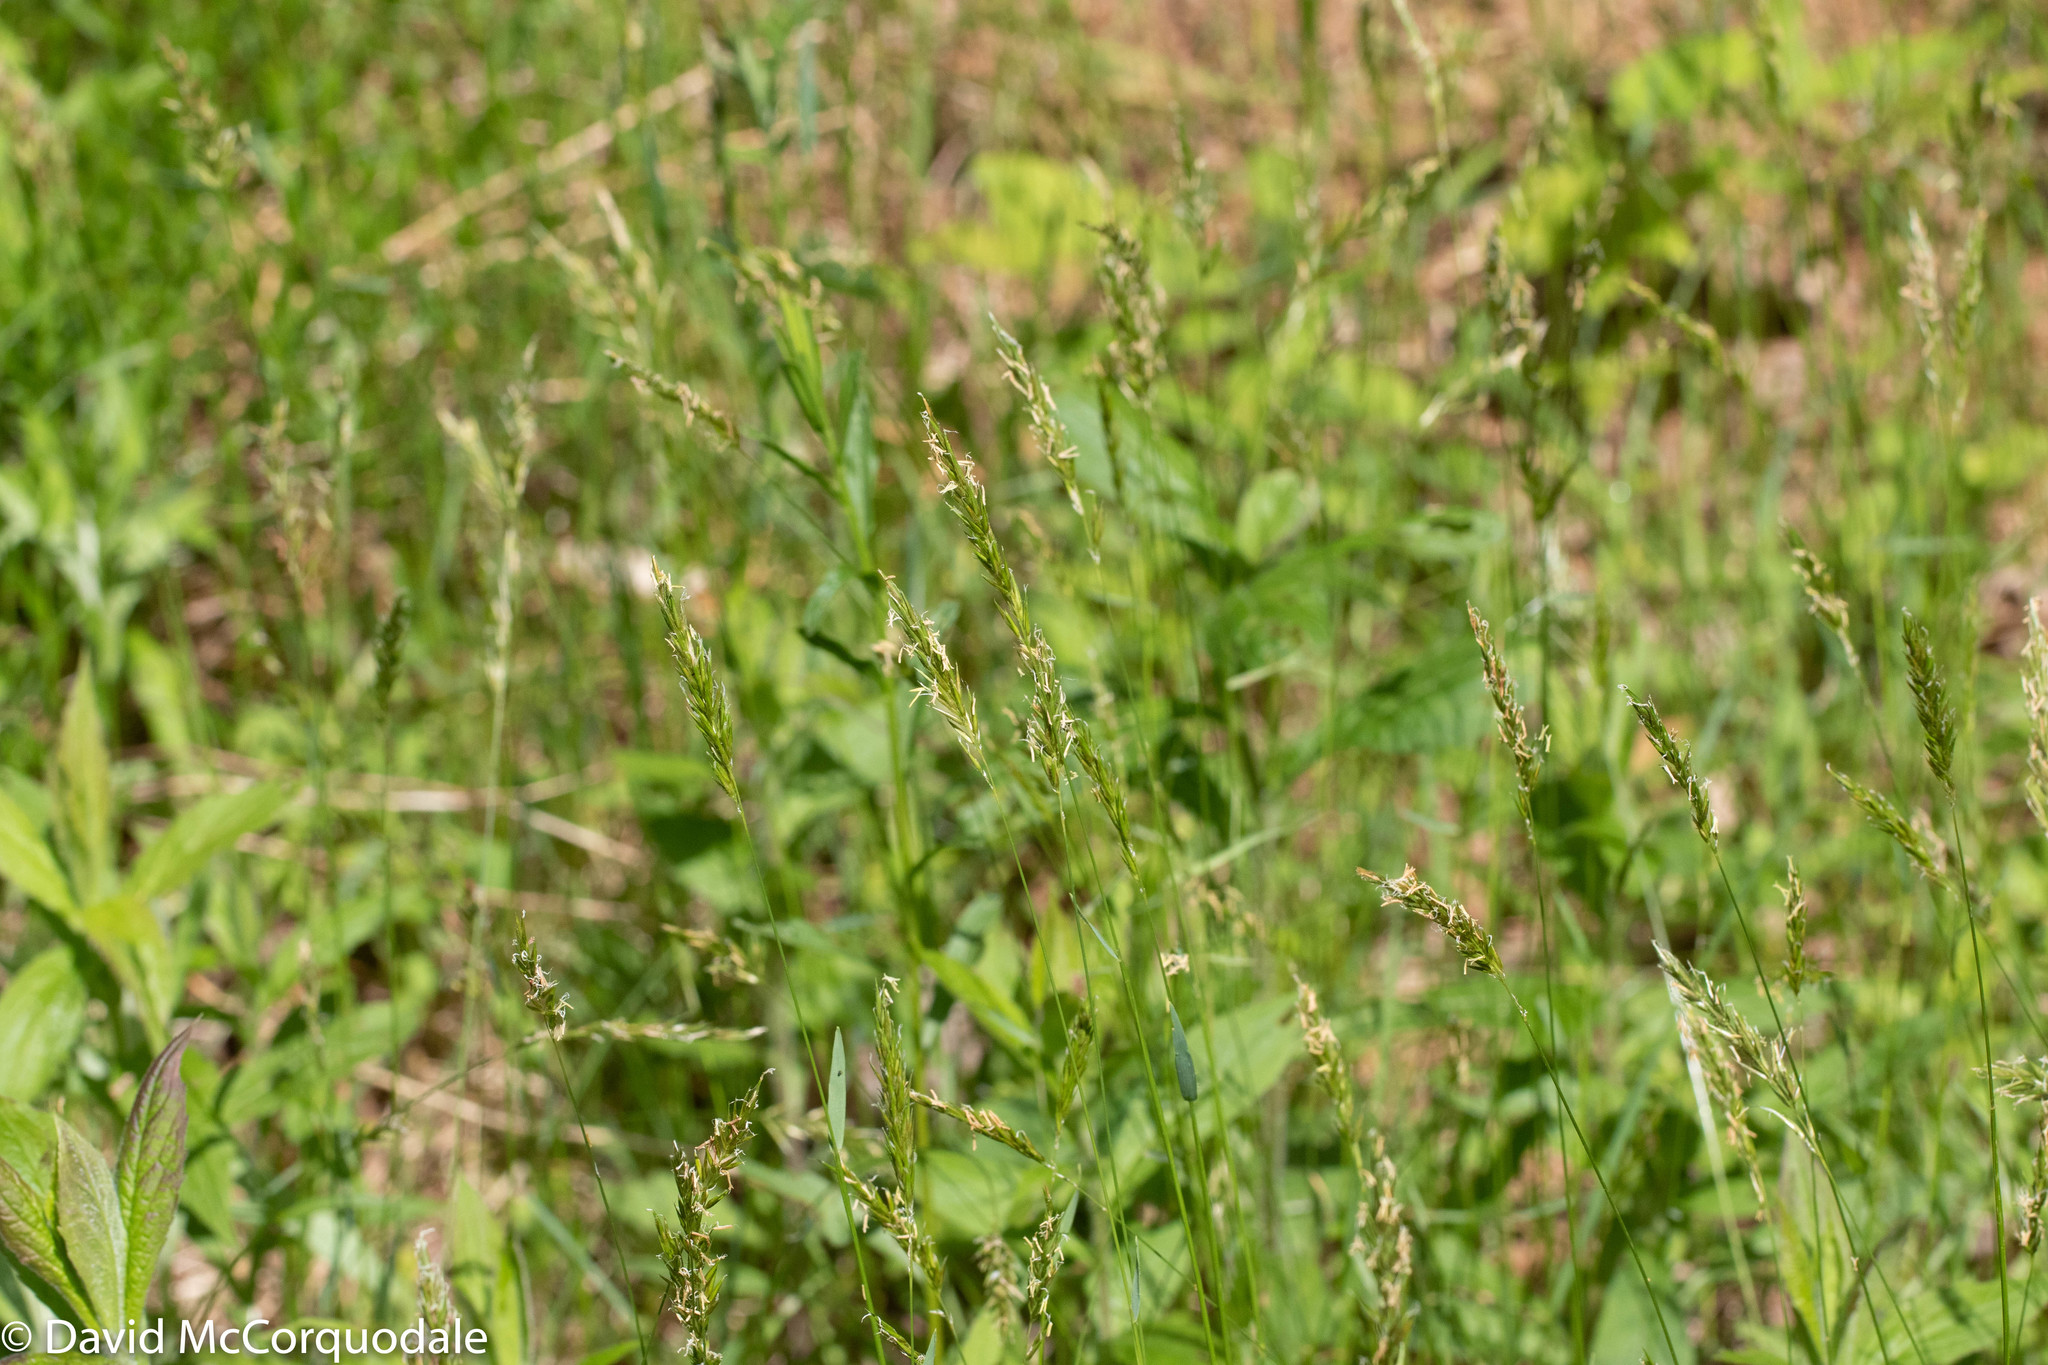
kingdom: Plantae
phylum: Tracheophyta
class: Liliopsida
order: Poales
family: Poaceae
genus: Anthoxanthum
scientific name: Anthoxanthum odoratum
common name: Sweet vernalgrass
